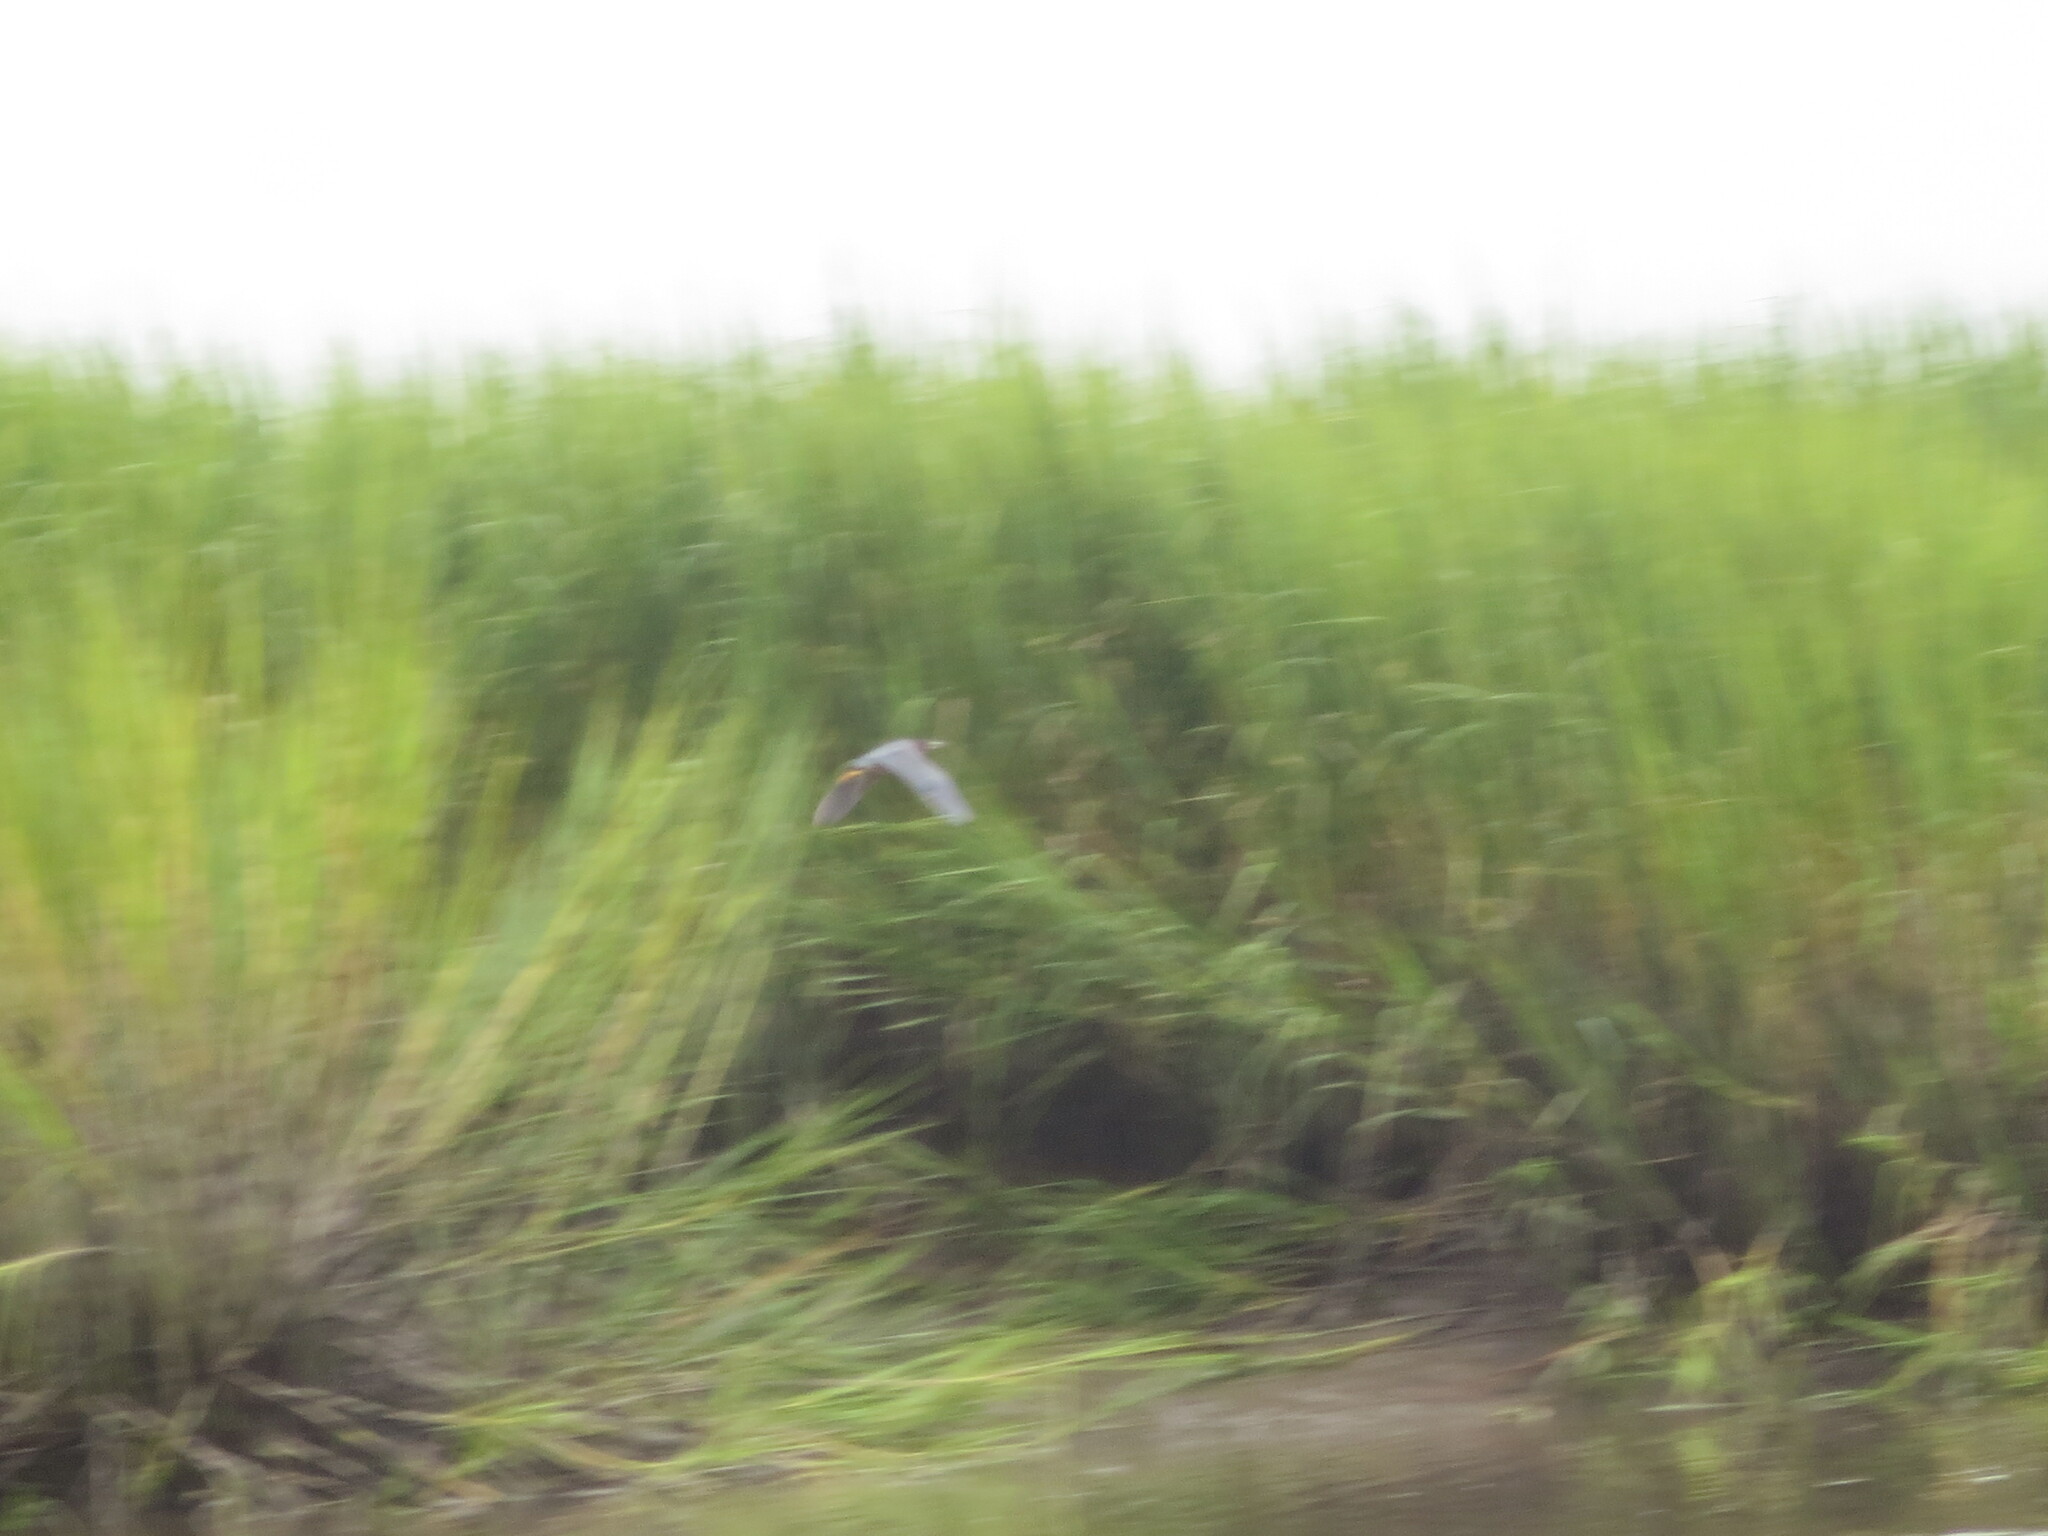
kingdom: Animalia
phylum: Chordata
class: Aves
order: Pelecaniformes
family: Ardeidae
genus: Butorides
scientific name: Butorides virescens
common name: Green heron
